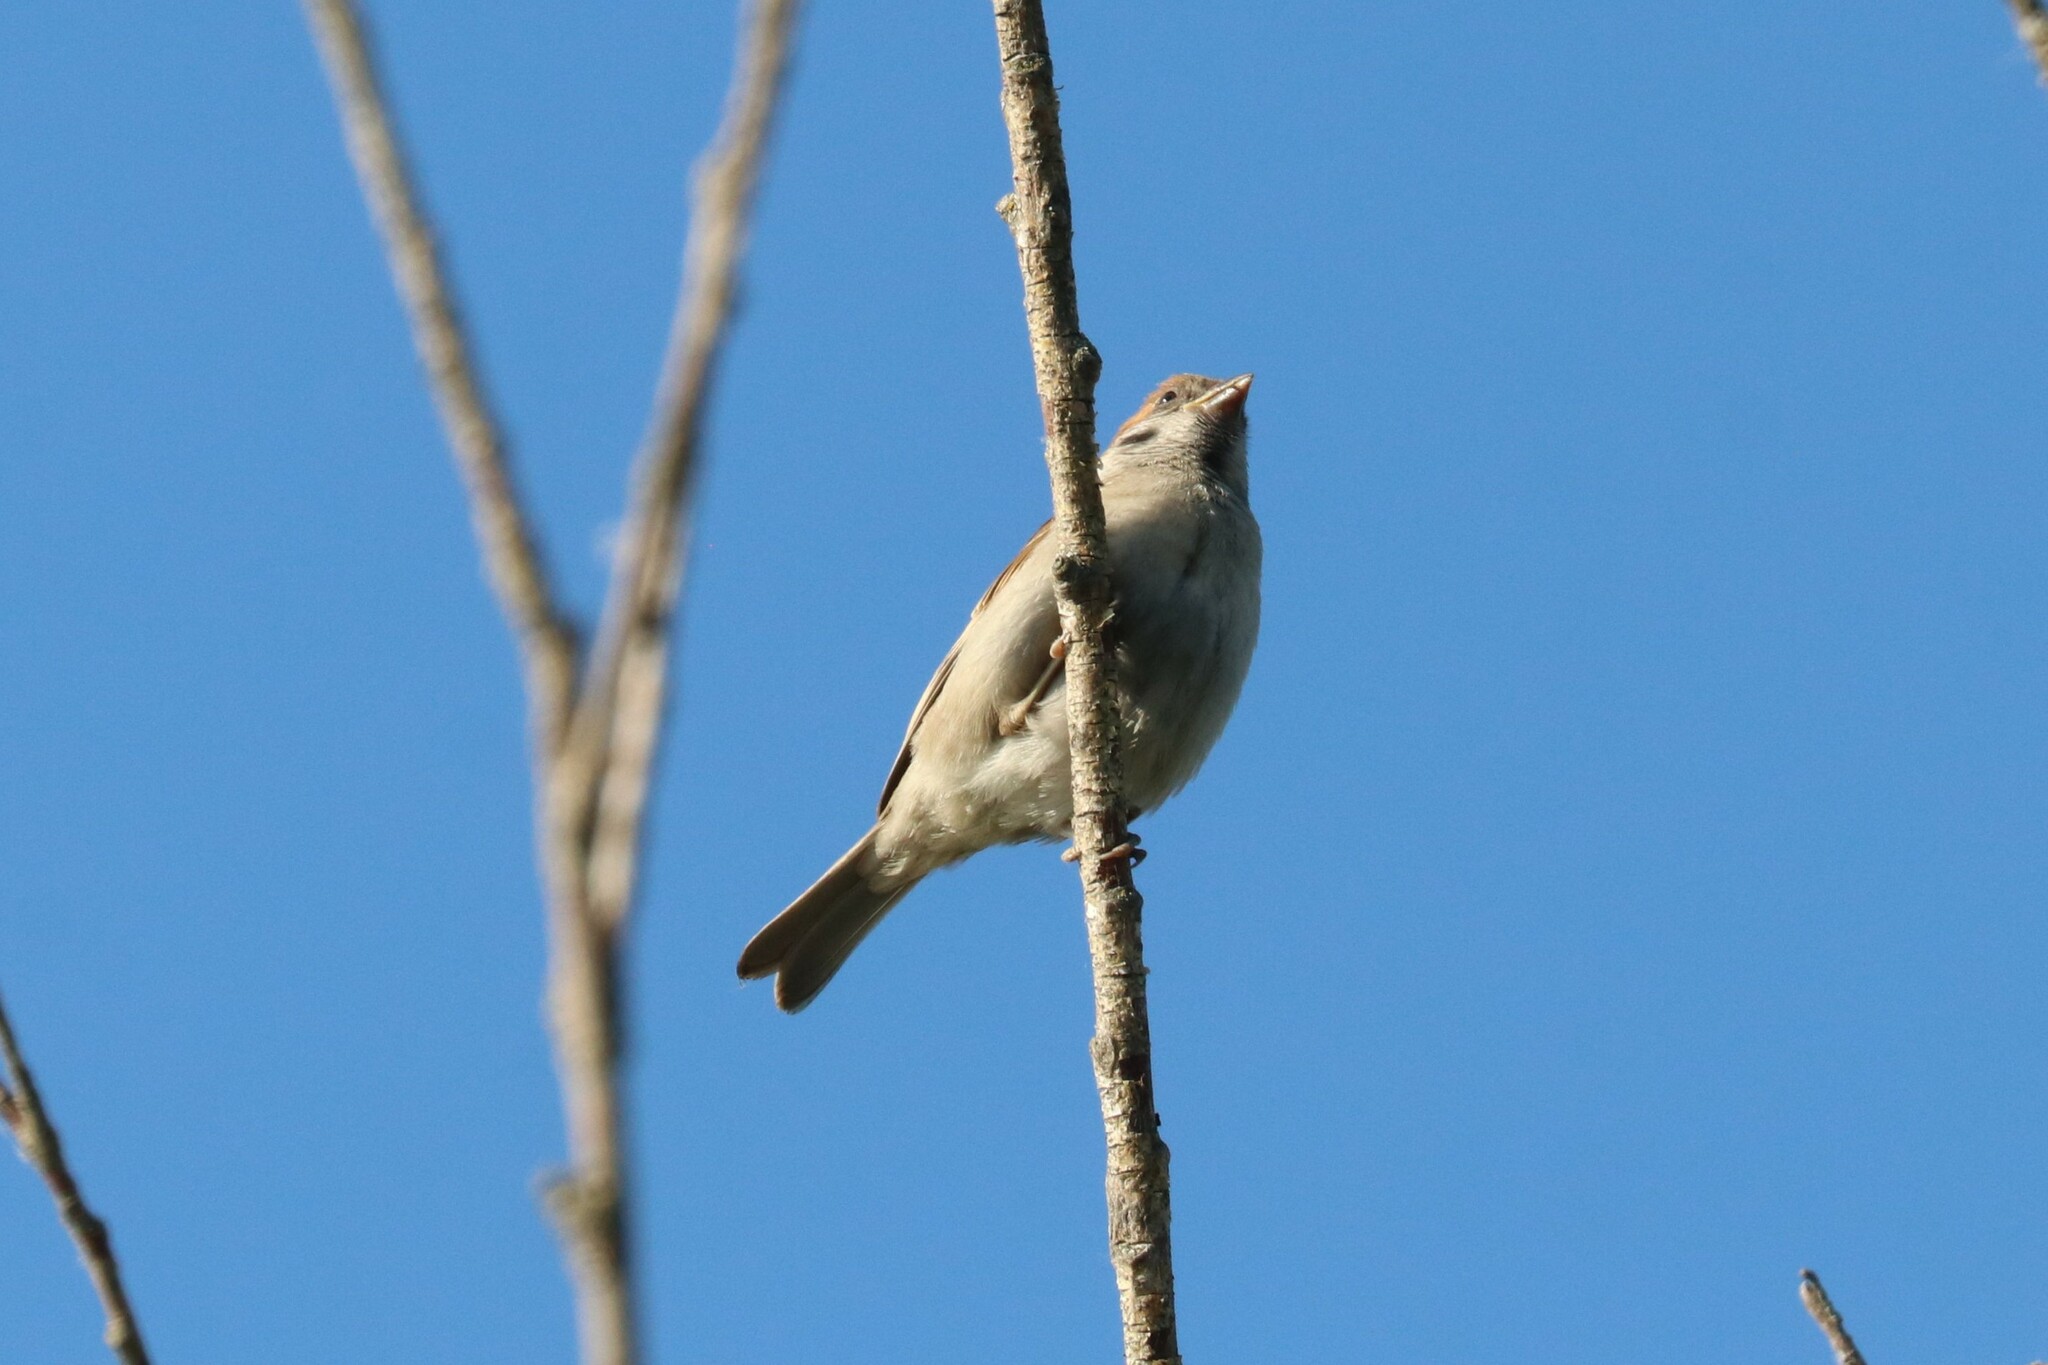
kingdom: Animalia
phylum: Chordata
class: Aves
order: Passeriformes
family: Passeridae
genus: Passer
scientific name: Passer montanus
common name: Eurasian tree sparrow
